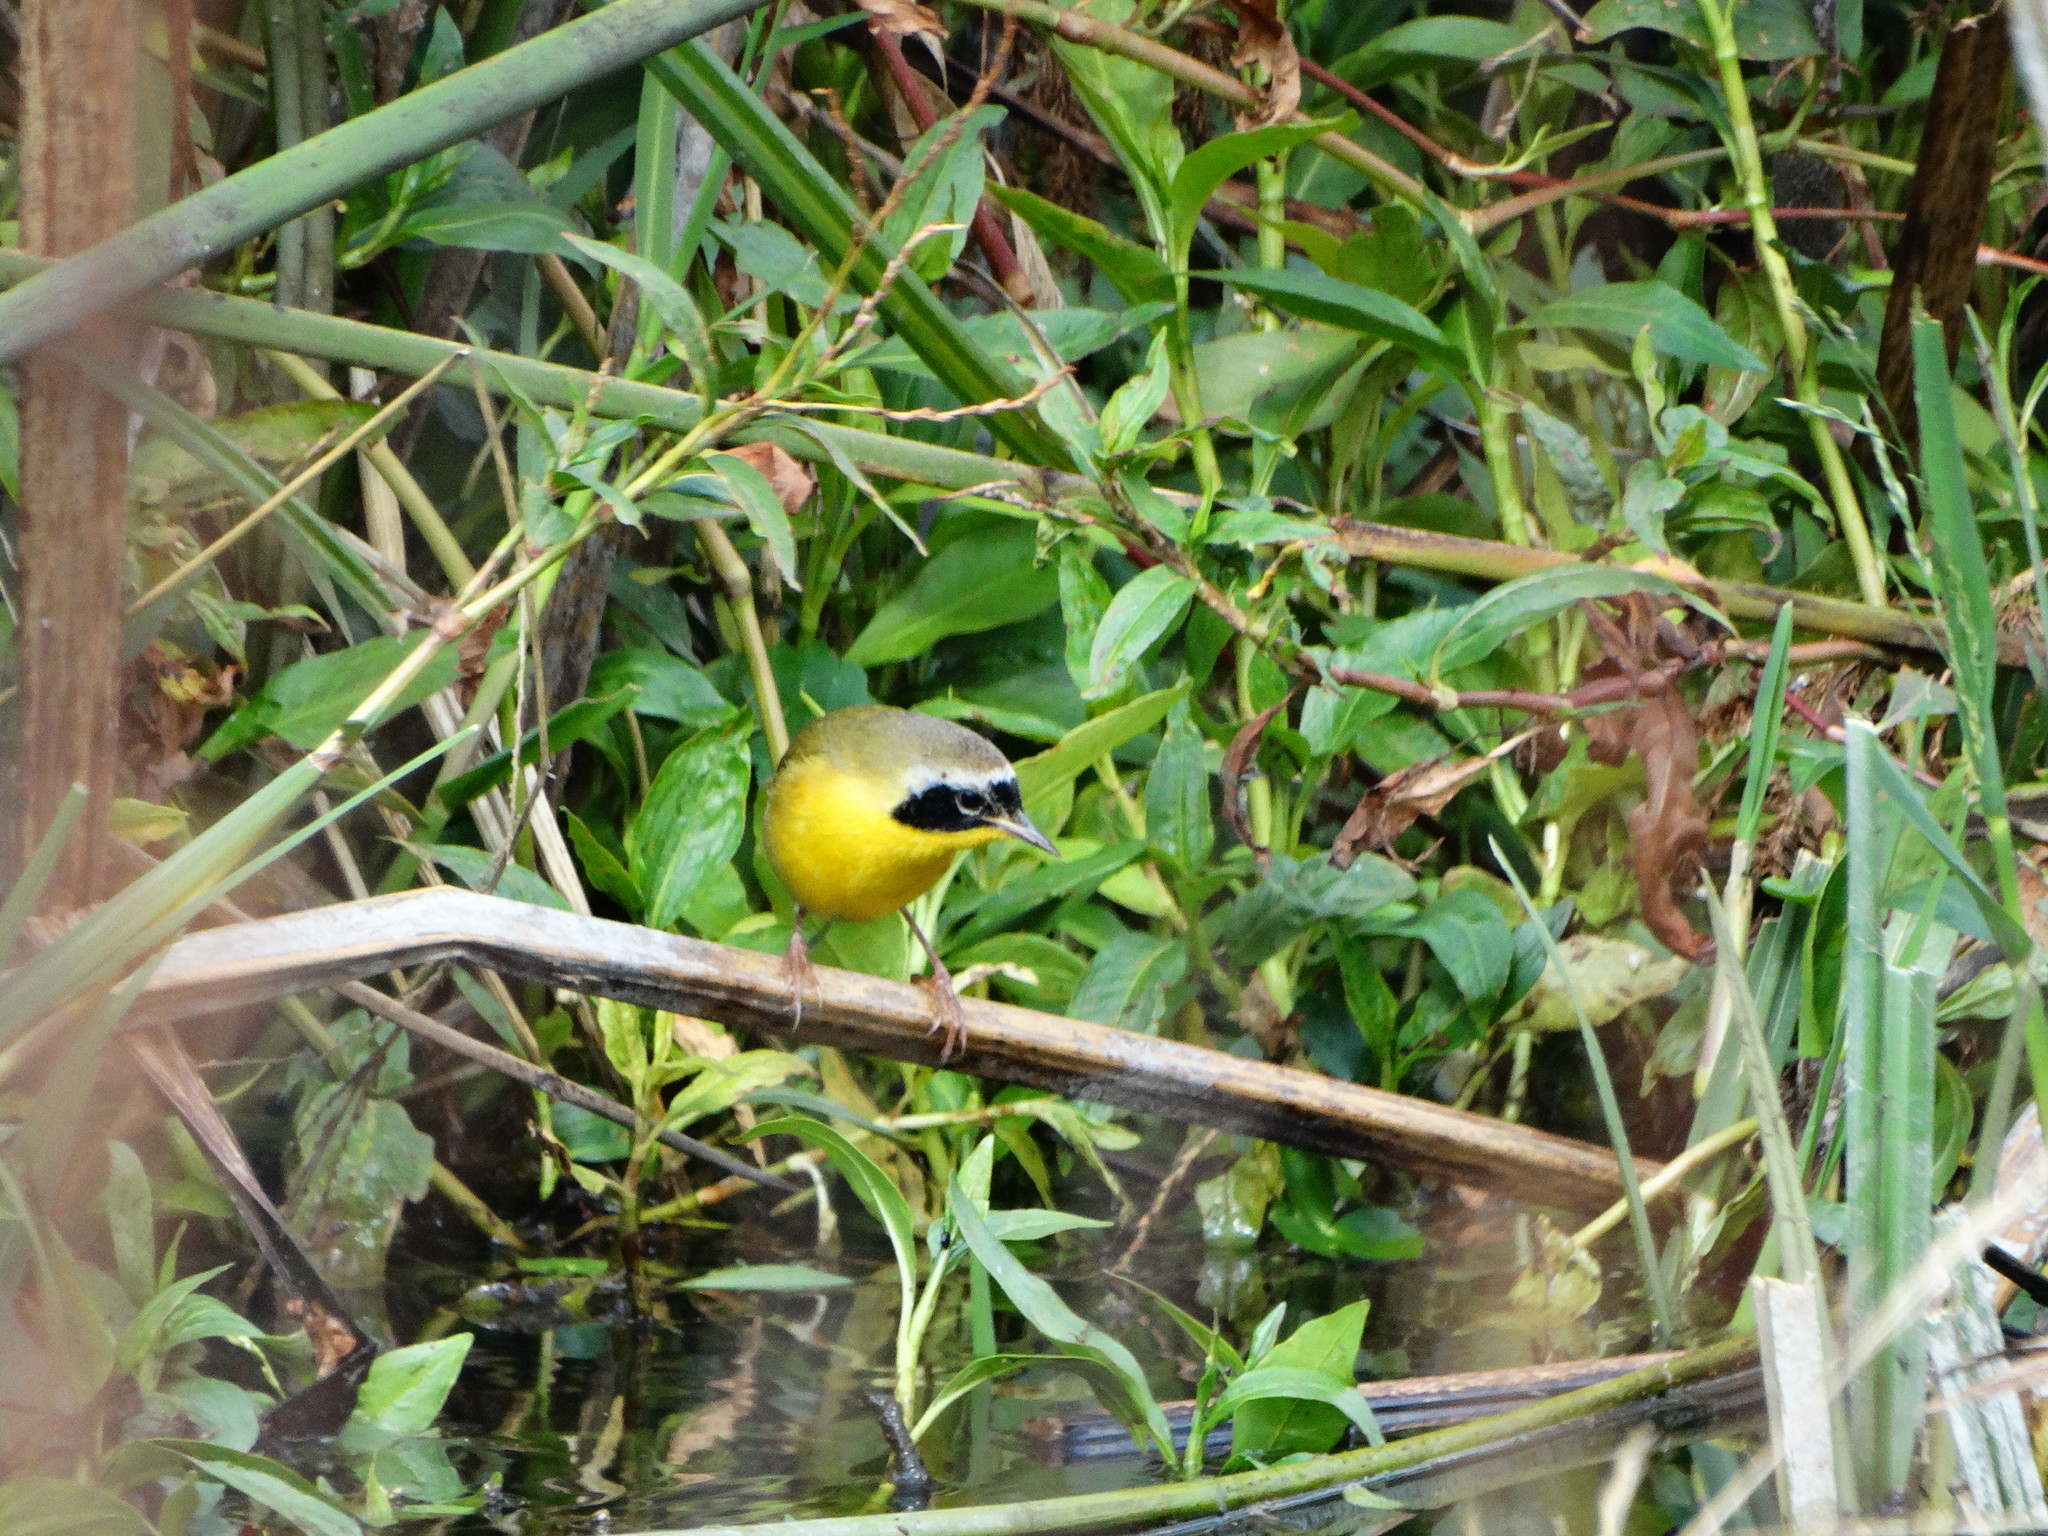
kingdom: Animalia
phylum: Chordata
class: Aves
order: Passeriformes
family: Parulidae
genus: Geothlypis
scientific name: Geothlypis trichas
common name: Common yellowthroat
